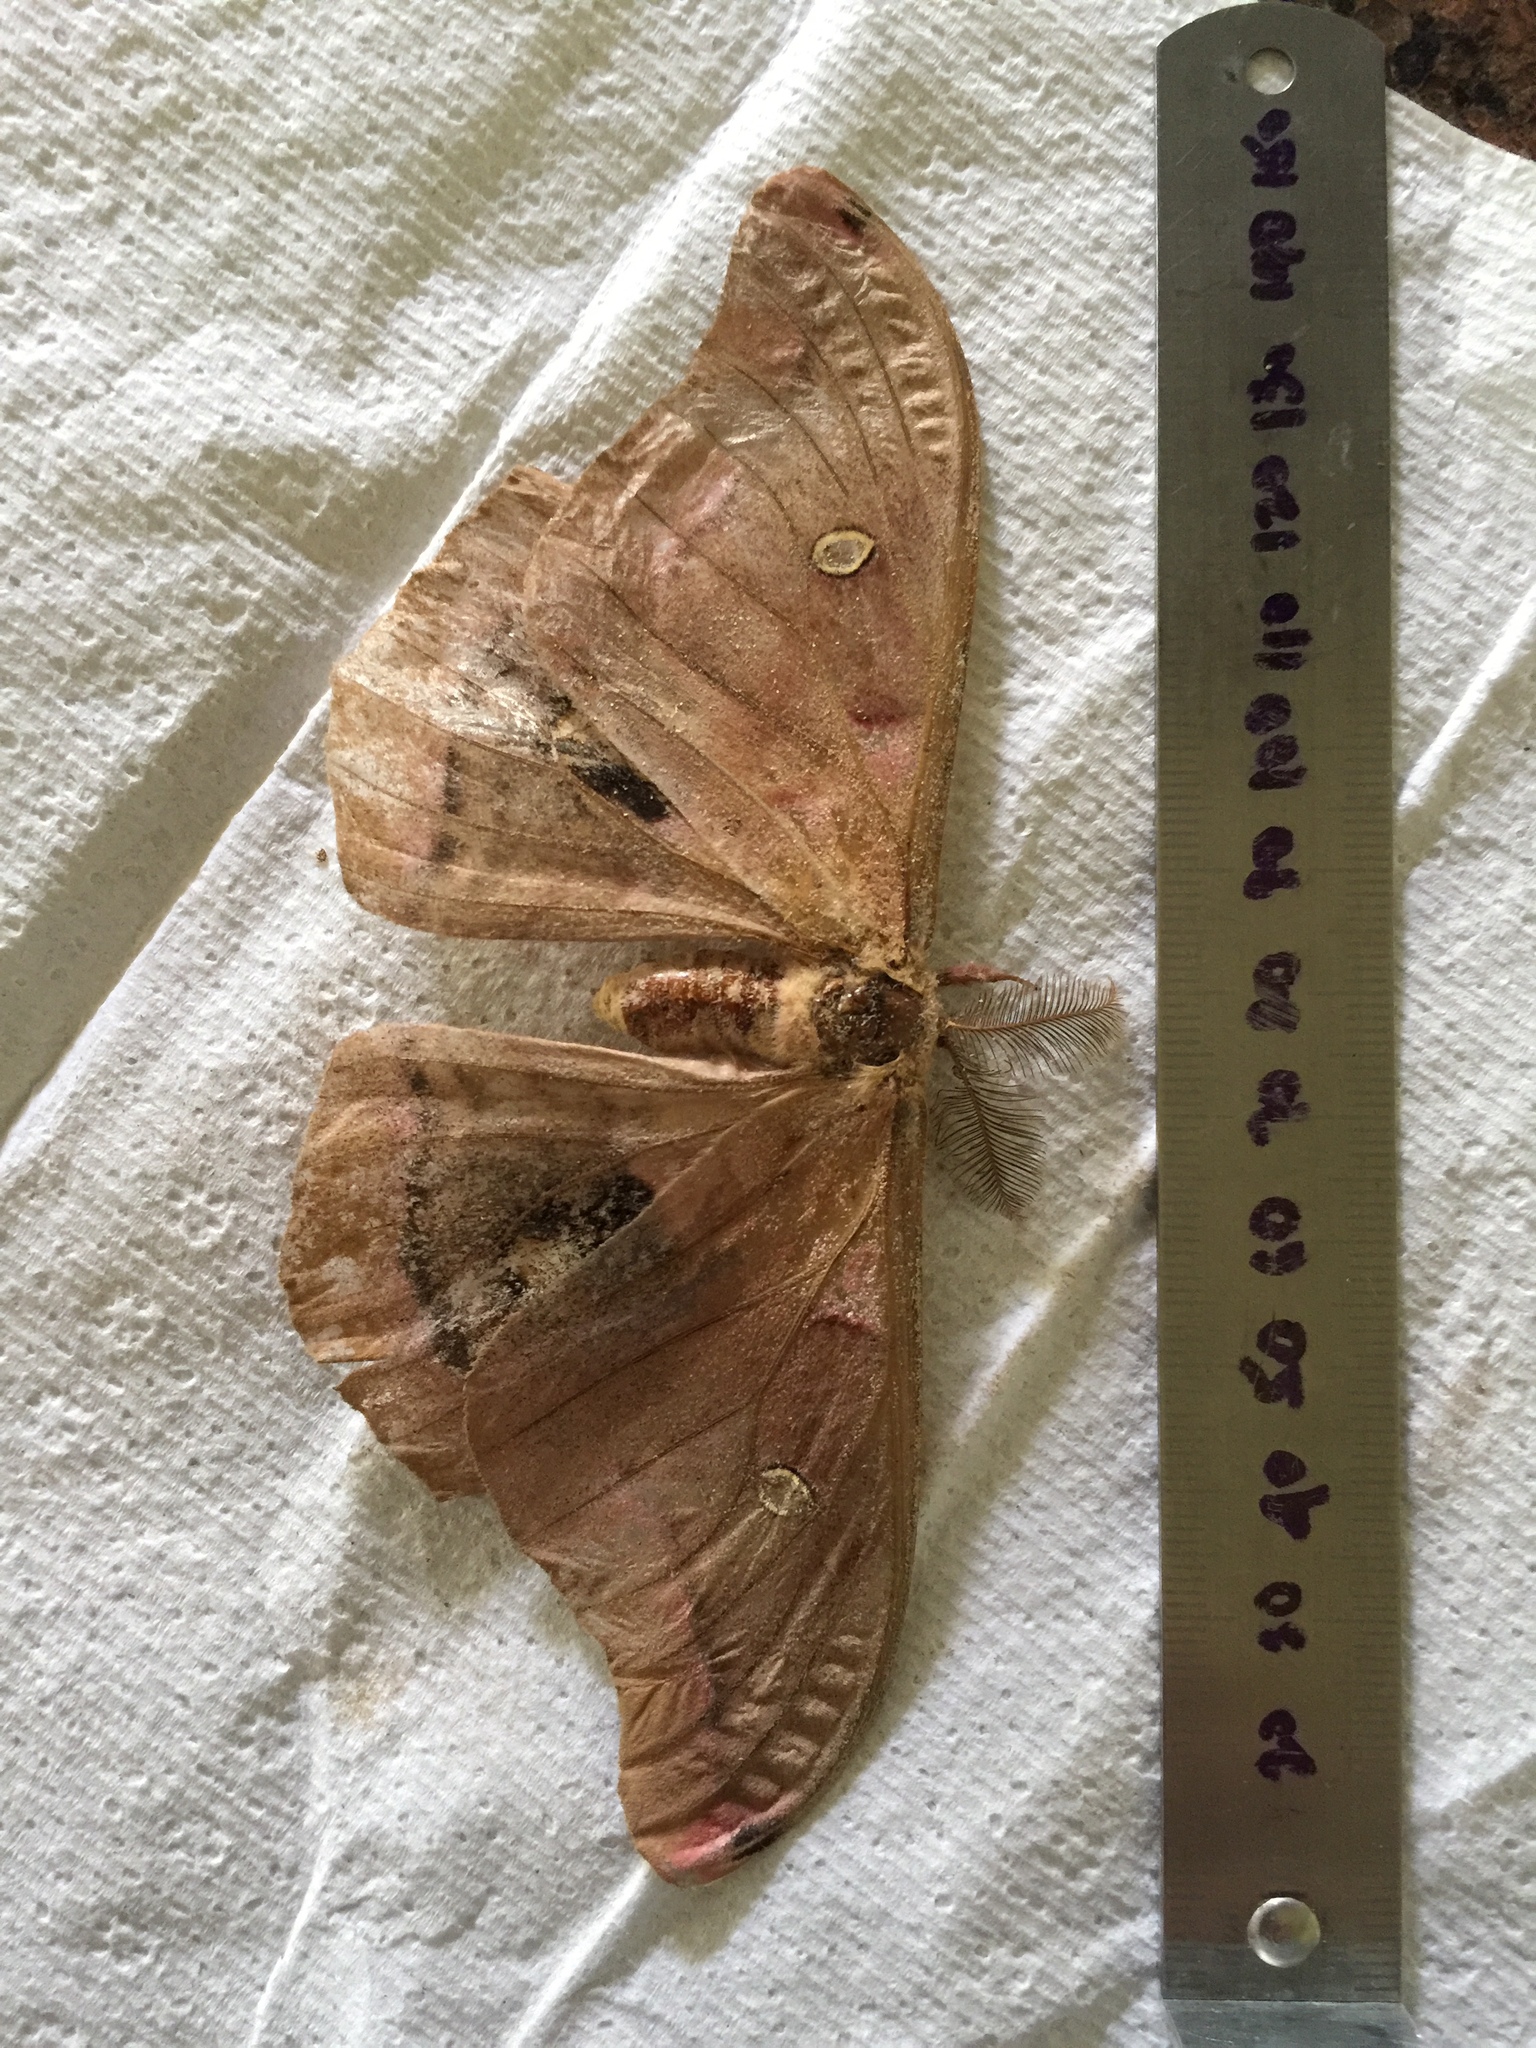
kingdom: Animalia
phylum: Arthropoda
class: Insecta
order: Lepidoptera
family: Saturniidae
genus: Antheraea
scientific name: Antheraea polyphemus
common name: Polyphemus moth
